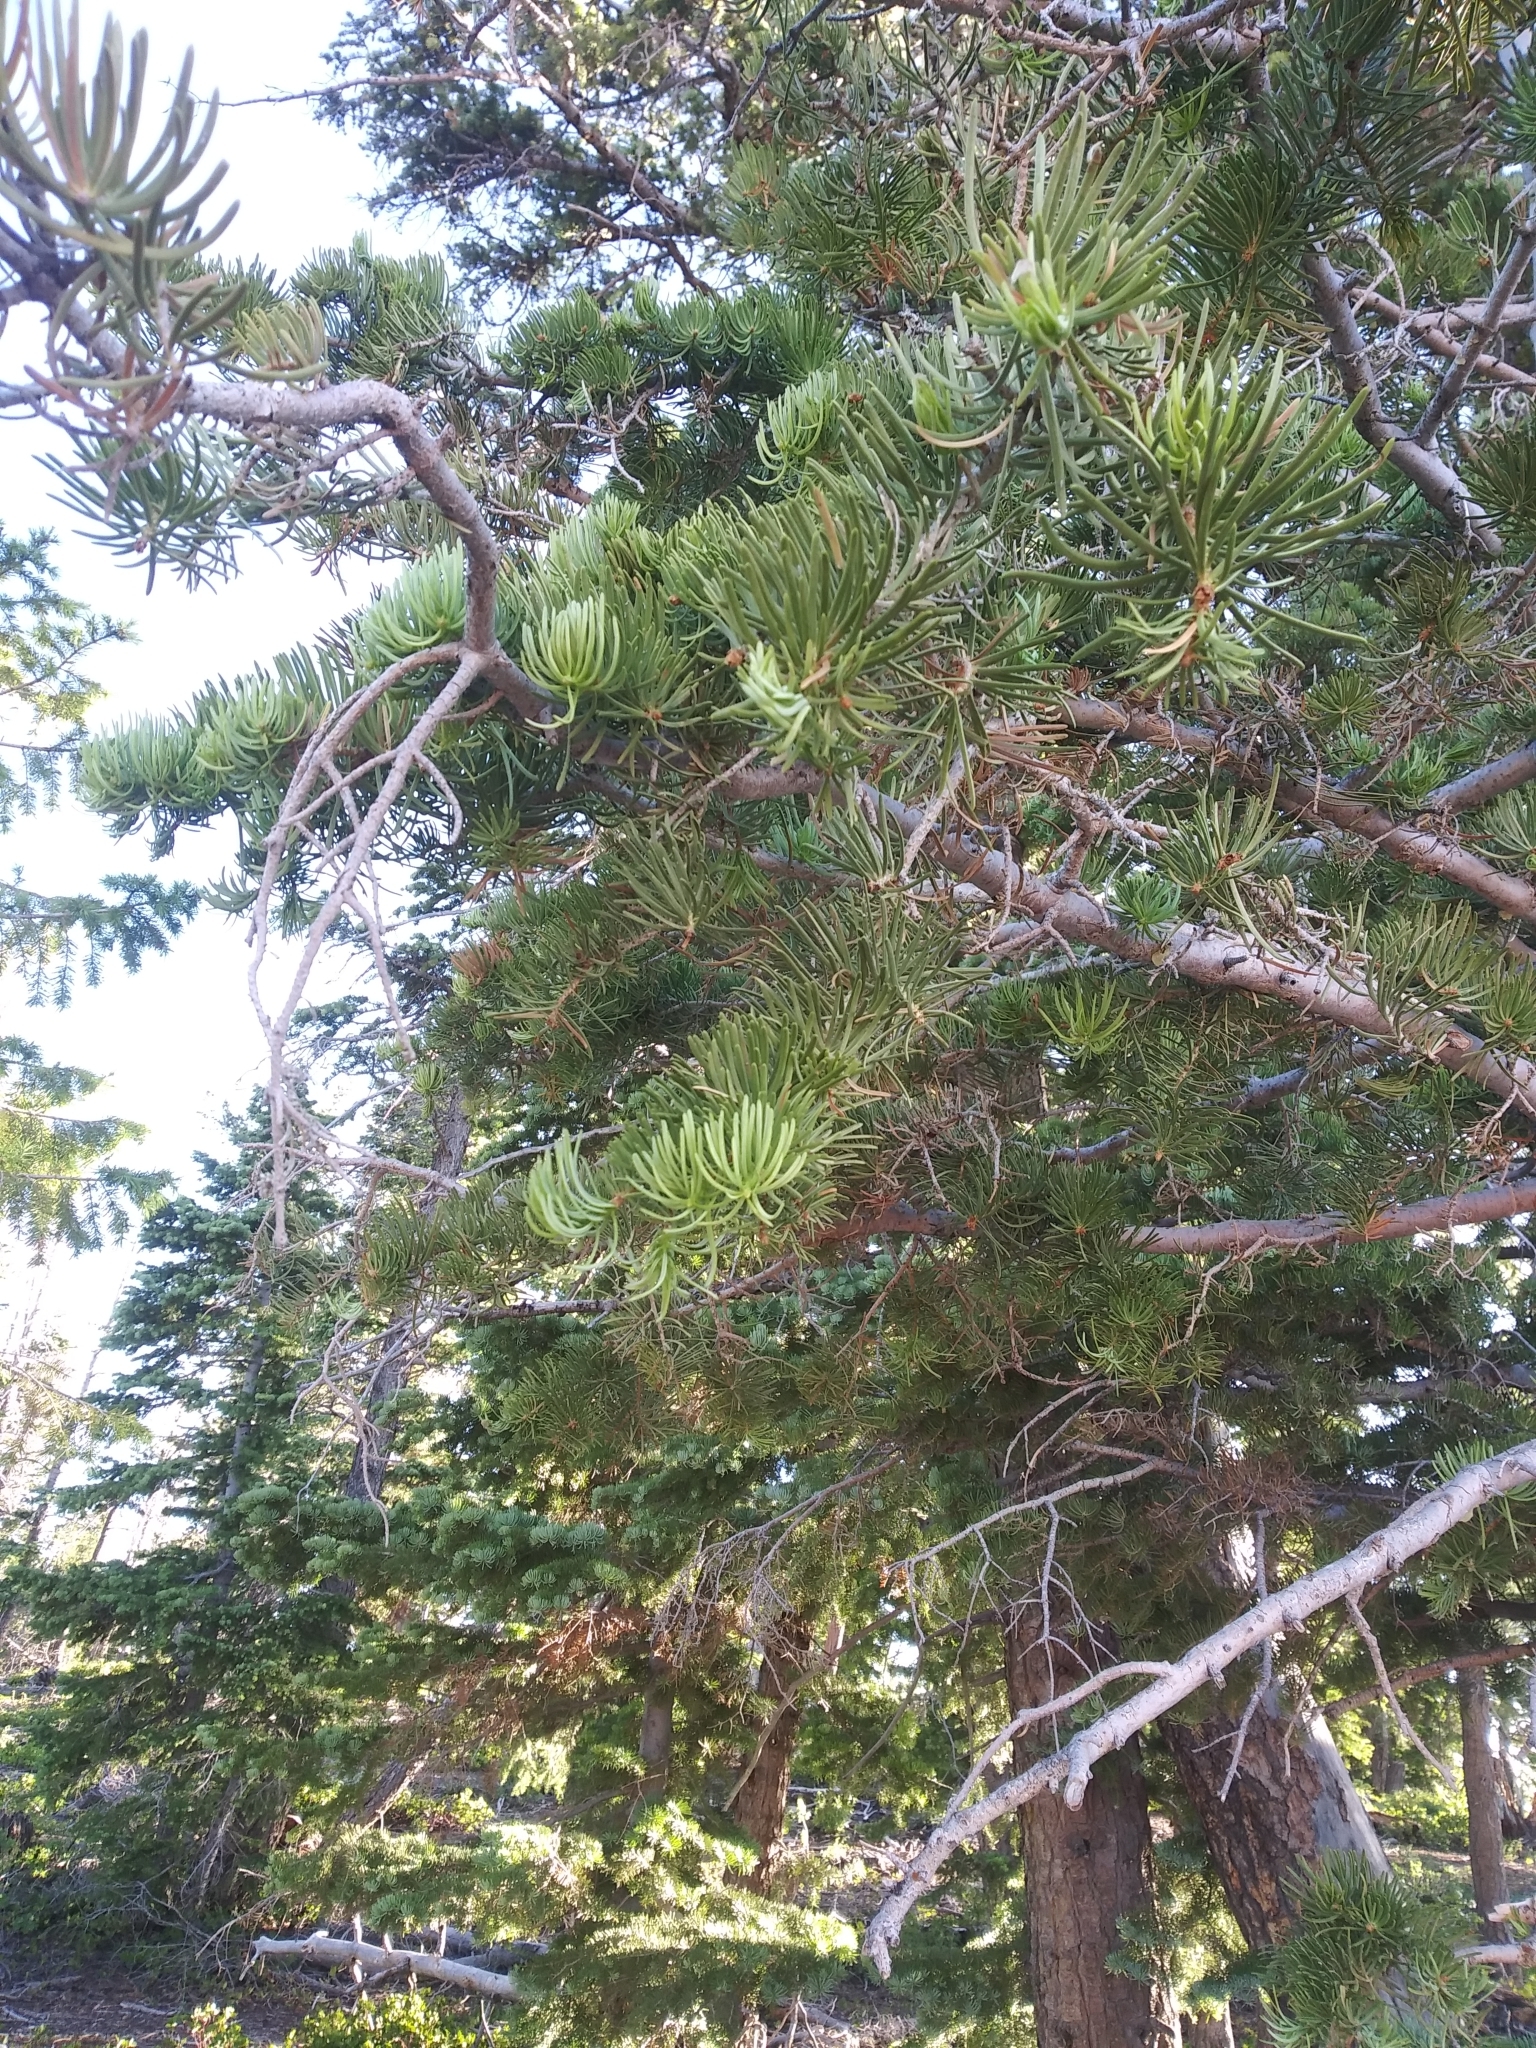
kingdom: Plantae
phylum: Tracheophyta
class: Pinopsida
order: Pinales
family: Pinaceae
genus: Abies
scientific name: Abies concolor
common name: Colorado fir
